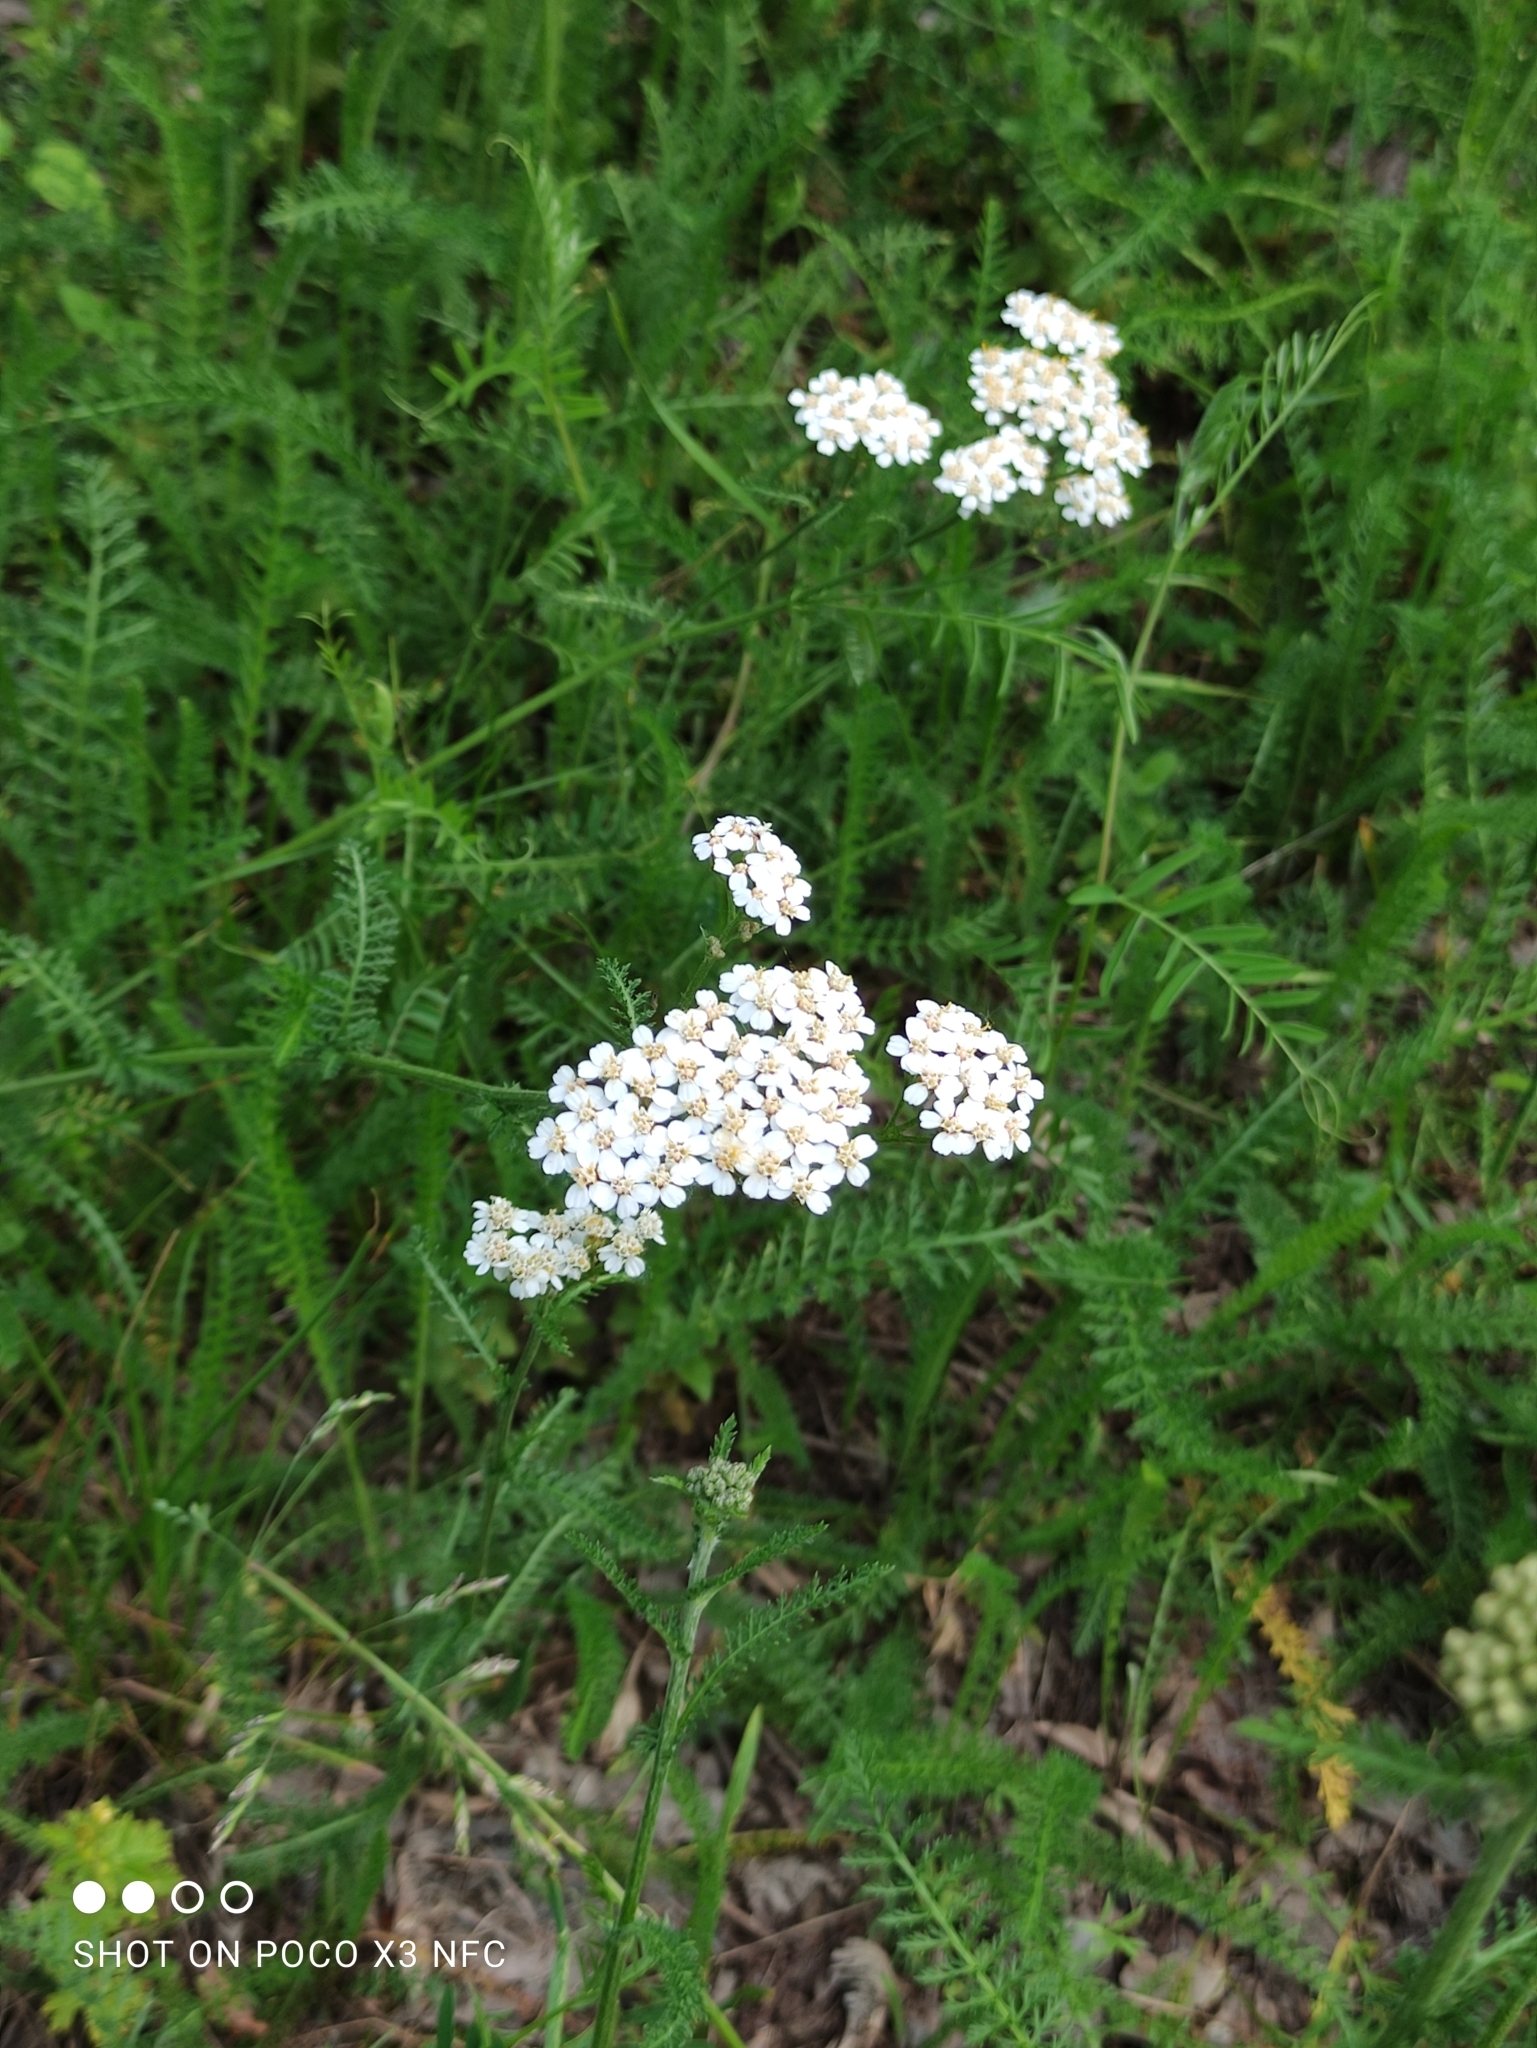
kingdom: Plantae
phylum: Tracheophyta
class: Magnoliopsida
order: Asterales
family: Asteraceae
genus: Achillea
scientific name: Achillea millefolium
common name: Yarrow
